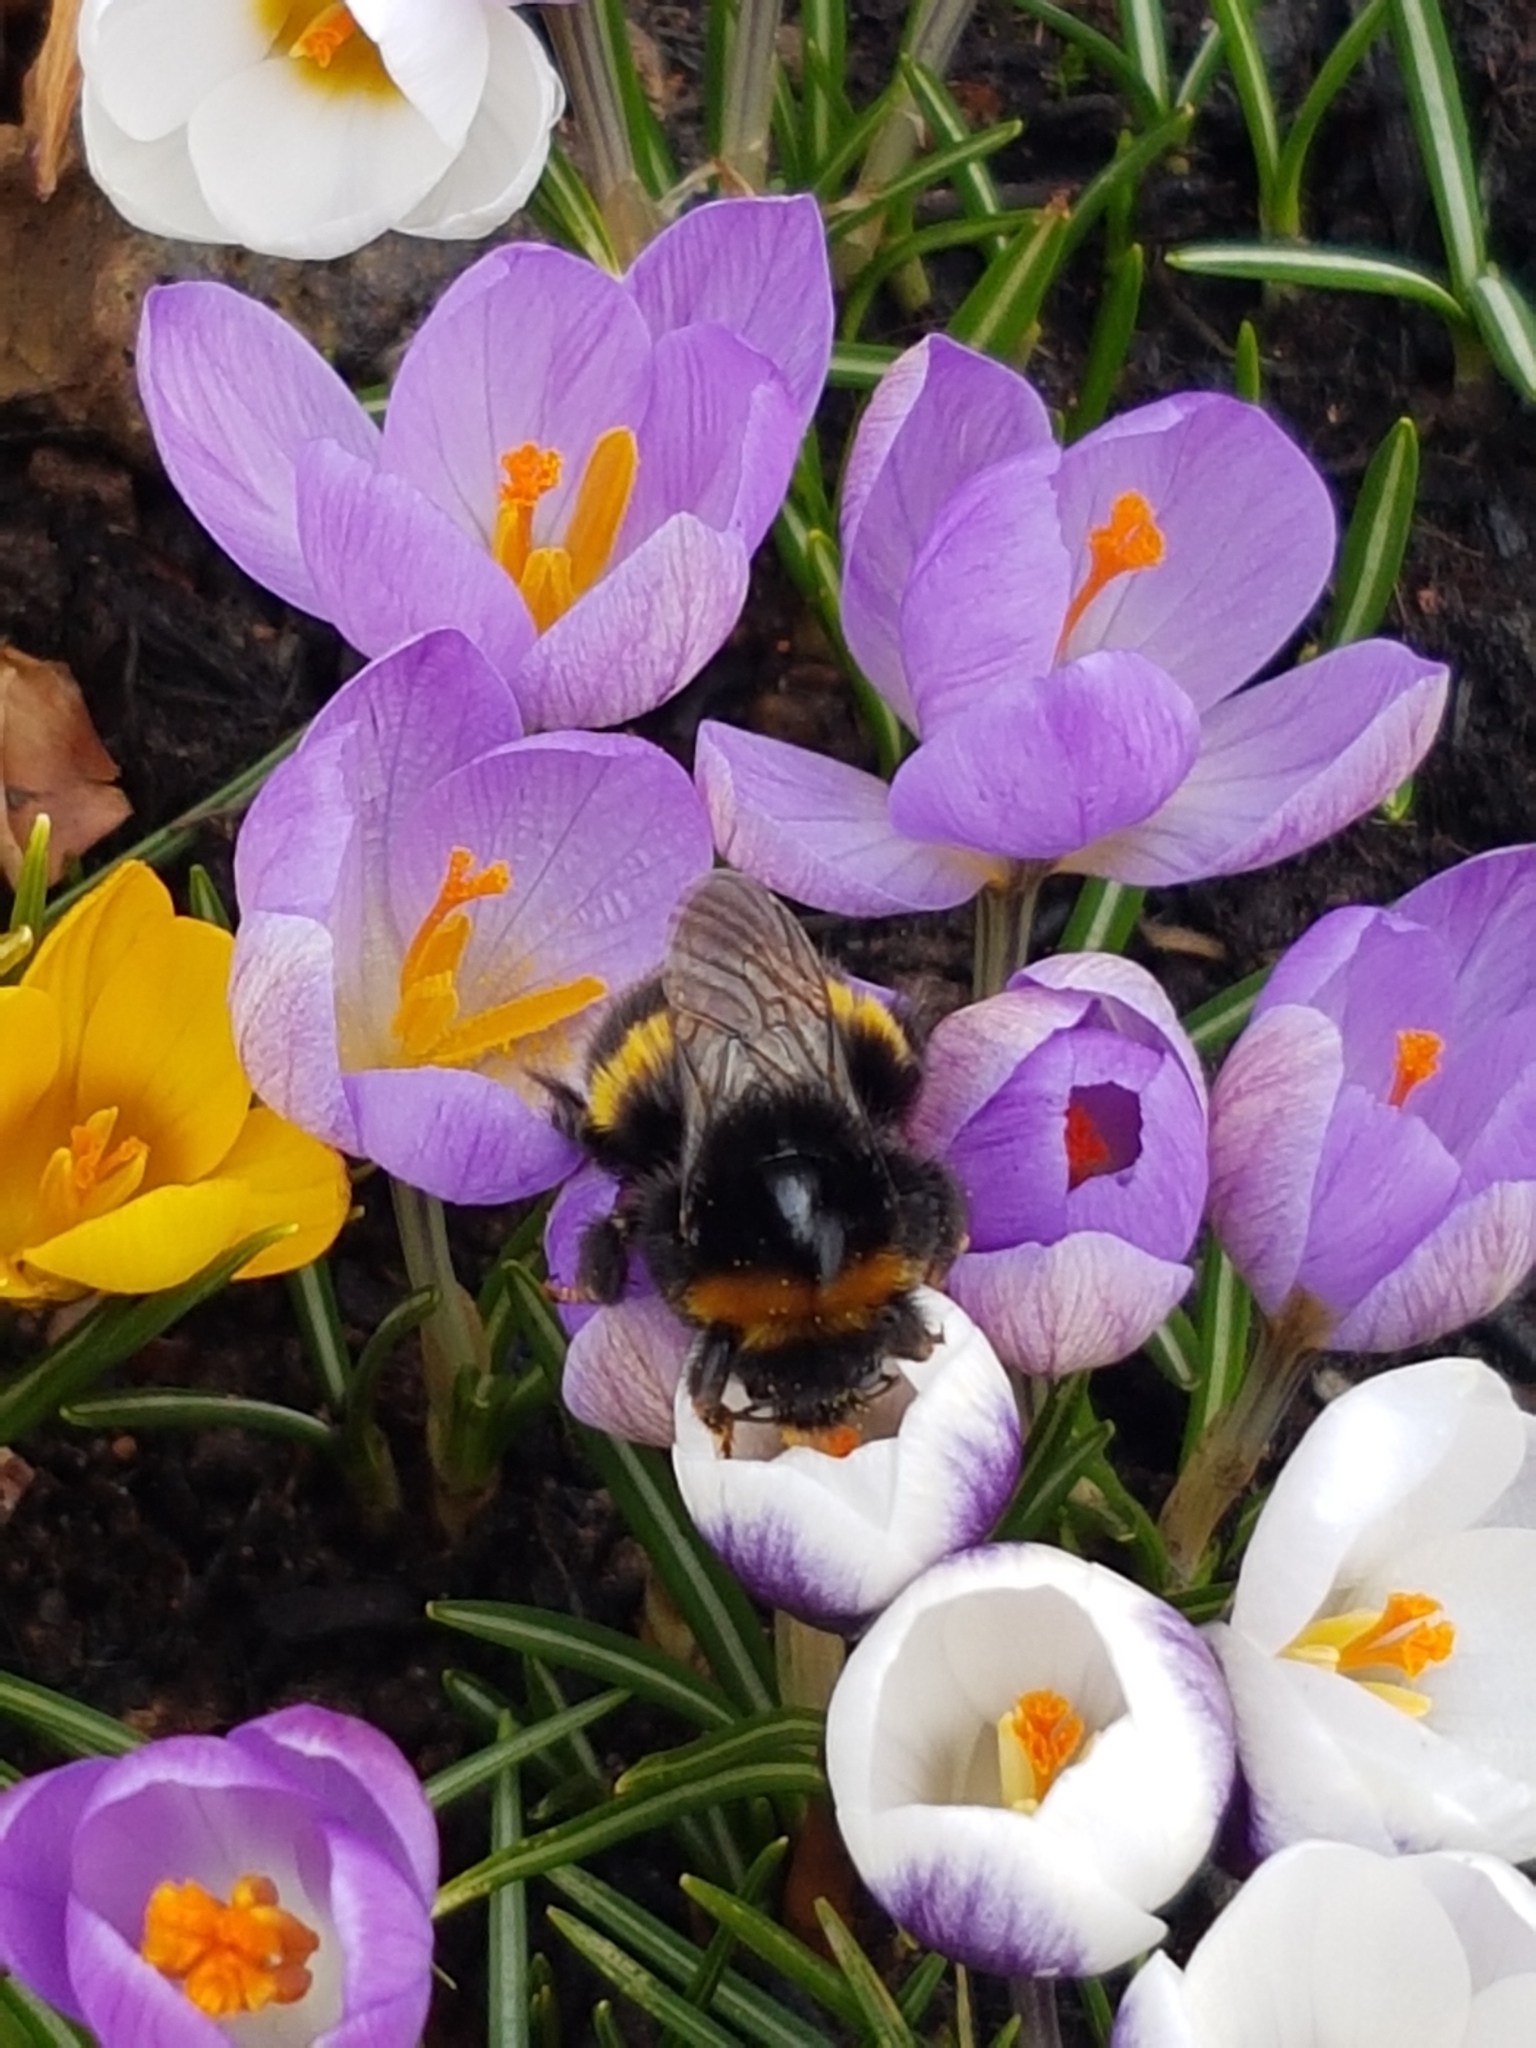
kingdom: Animalia
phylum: Arthropoda
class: Insecta
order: Hymenoptera
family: Apidae
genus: Bombus
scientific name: Bombus terrestris
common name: Buff-tailed bumblebee
